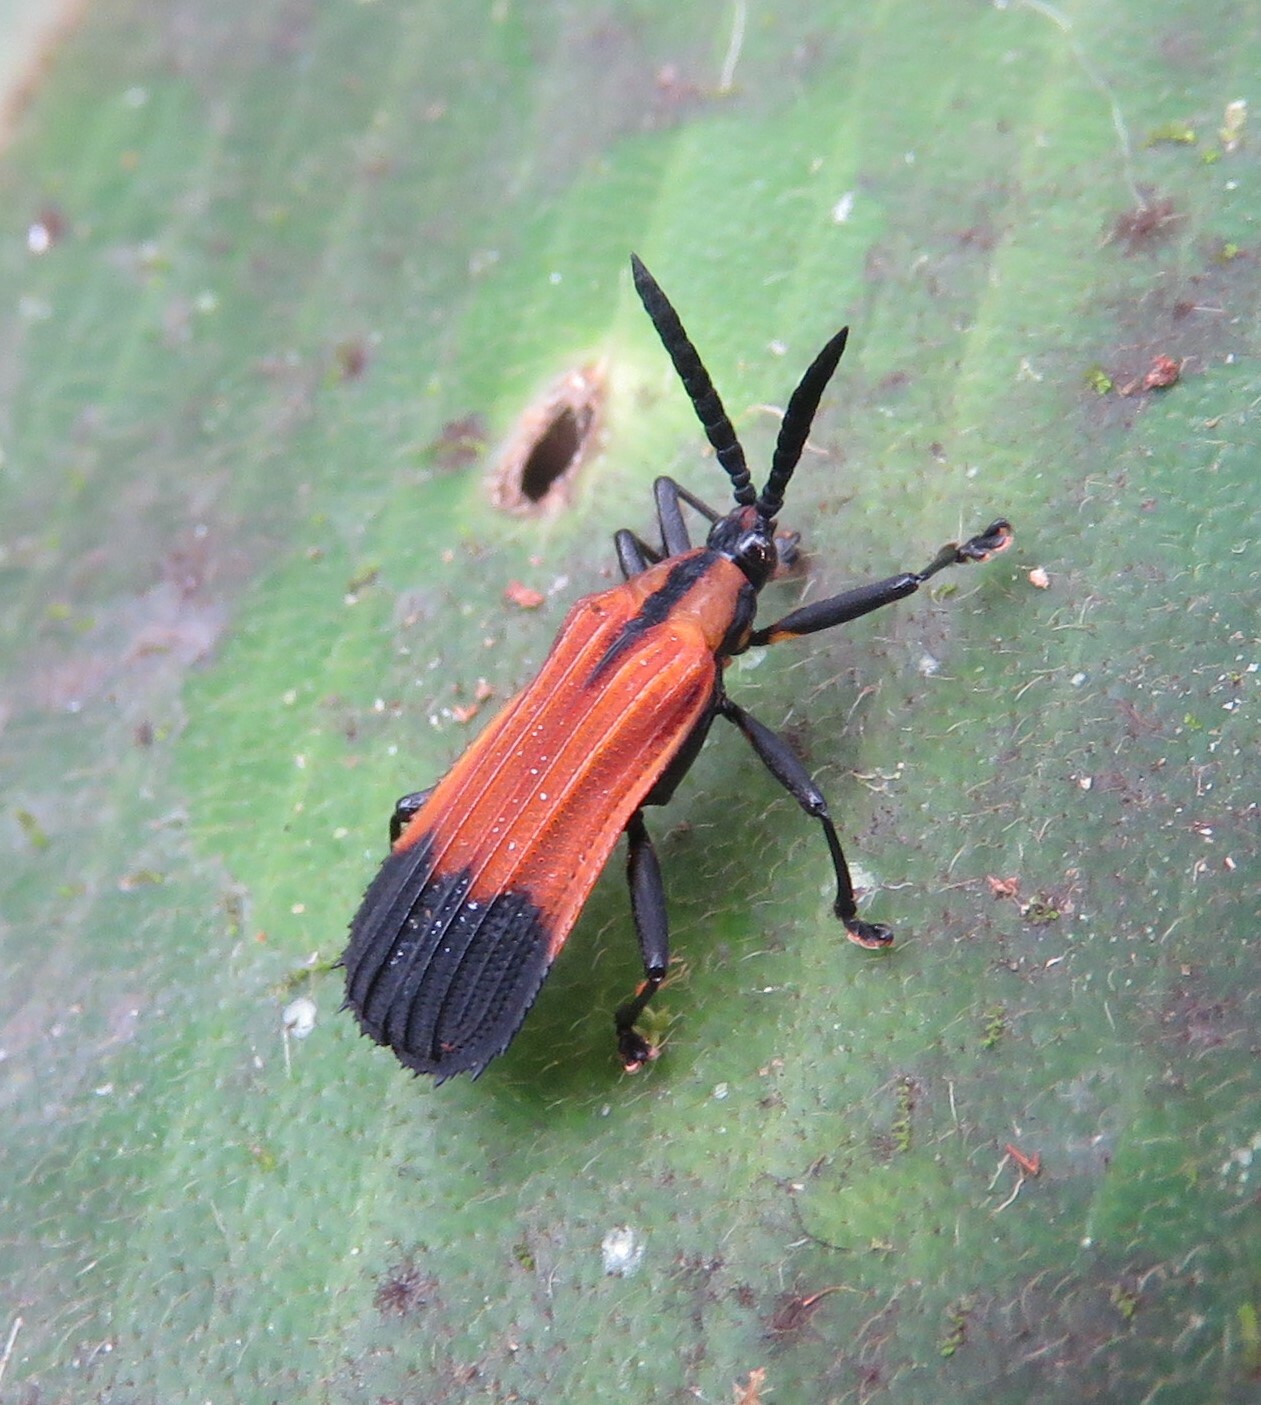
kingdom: Animalia
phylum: Arthropoda
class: Insecta
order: Coleoptera
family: Chrysomelidae
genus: Oxychalepus
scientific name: Oxychalepus posticatus
